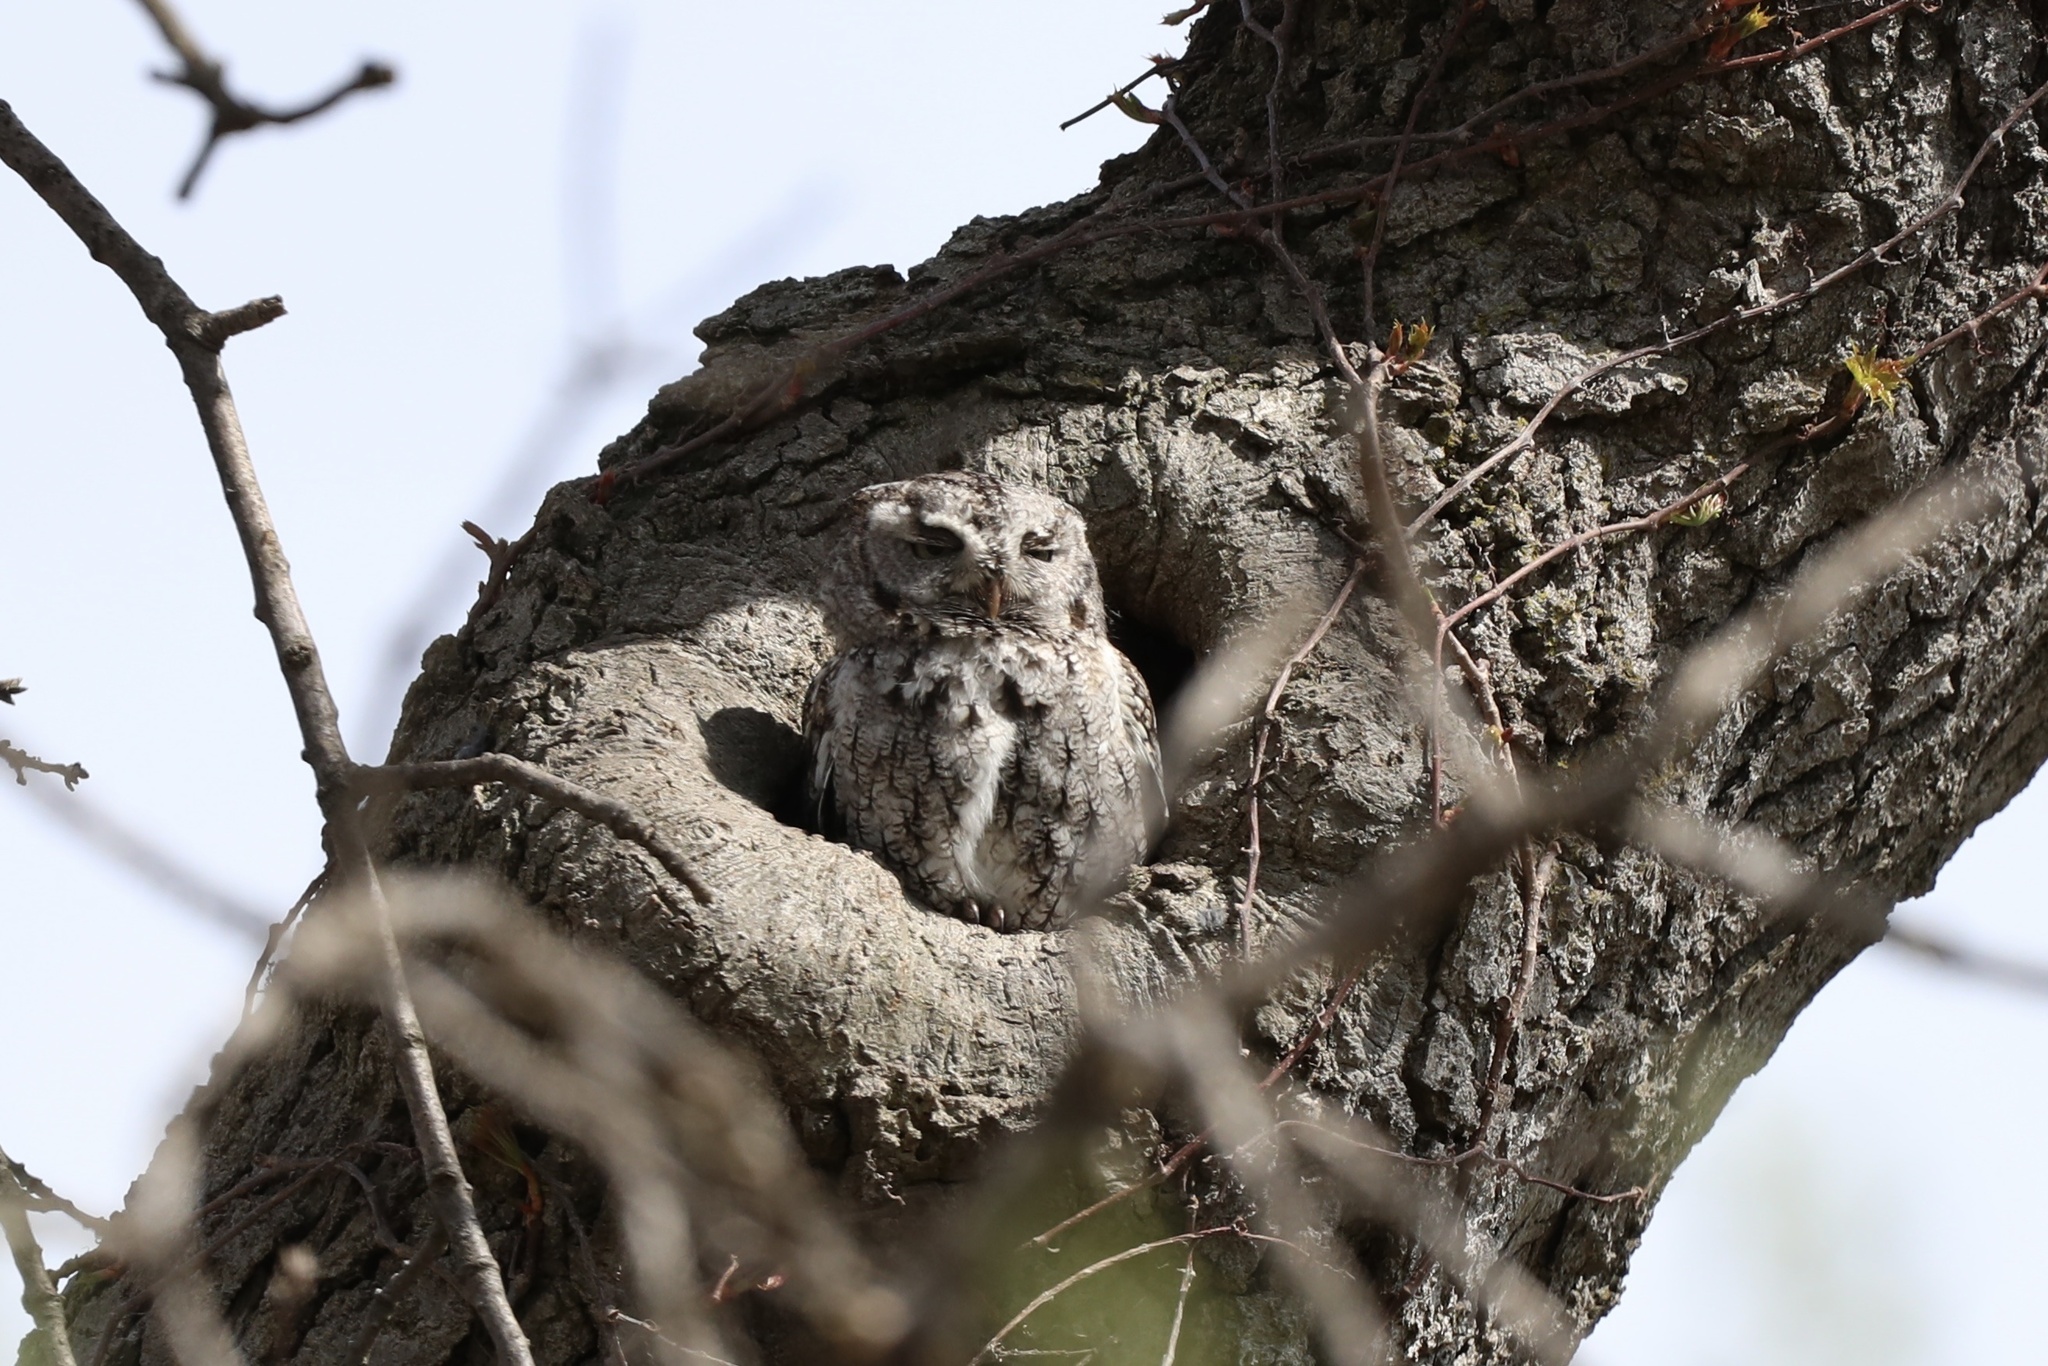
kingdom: Animalia
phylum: Chordata
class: Aves
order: Strigiformes
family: Strigidae
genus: Megascops
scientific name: Megascops asio
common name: Eastern screech-owl
